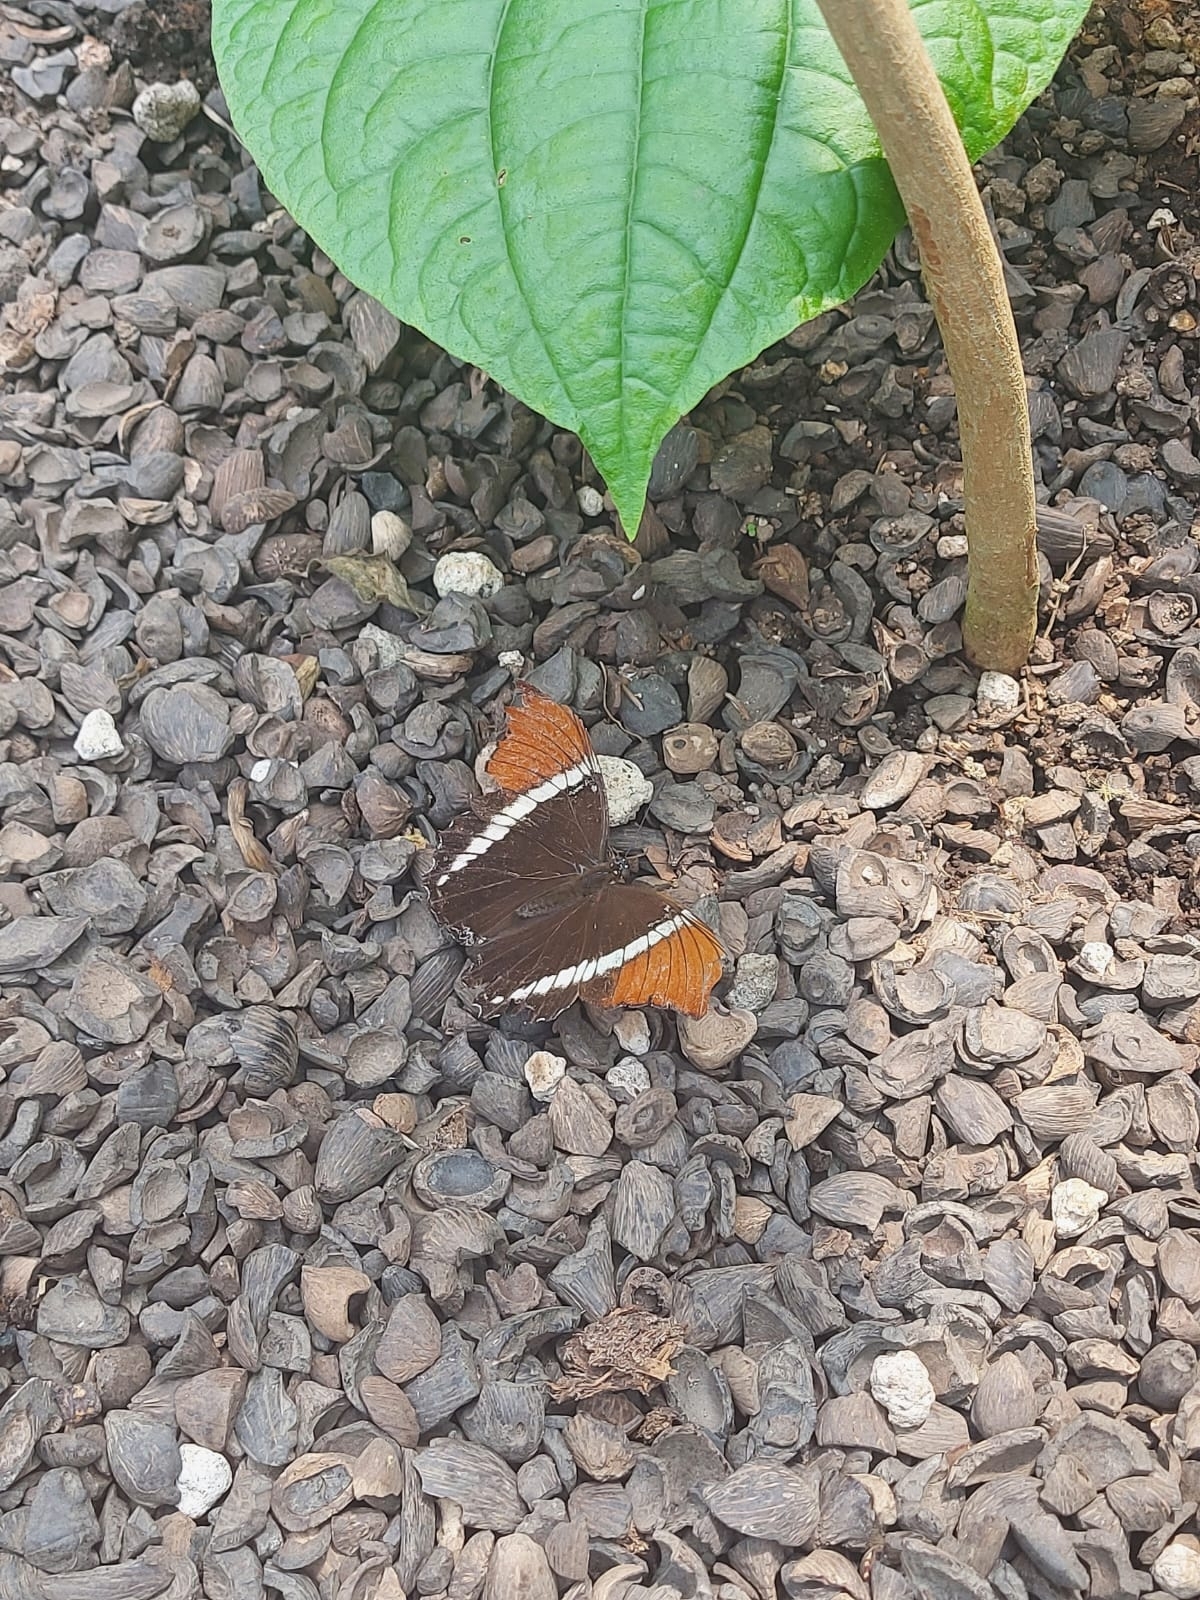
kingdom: Animalia
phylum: Arthropoda
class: Insecta
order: Lepidoptera
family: Nymphalidae
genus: Siproeta
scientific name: Siproeta epaphus
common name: Rusty-tipped page
